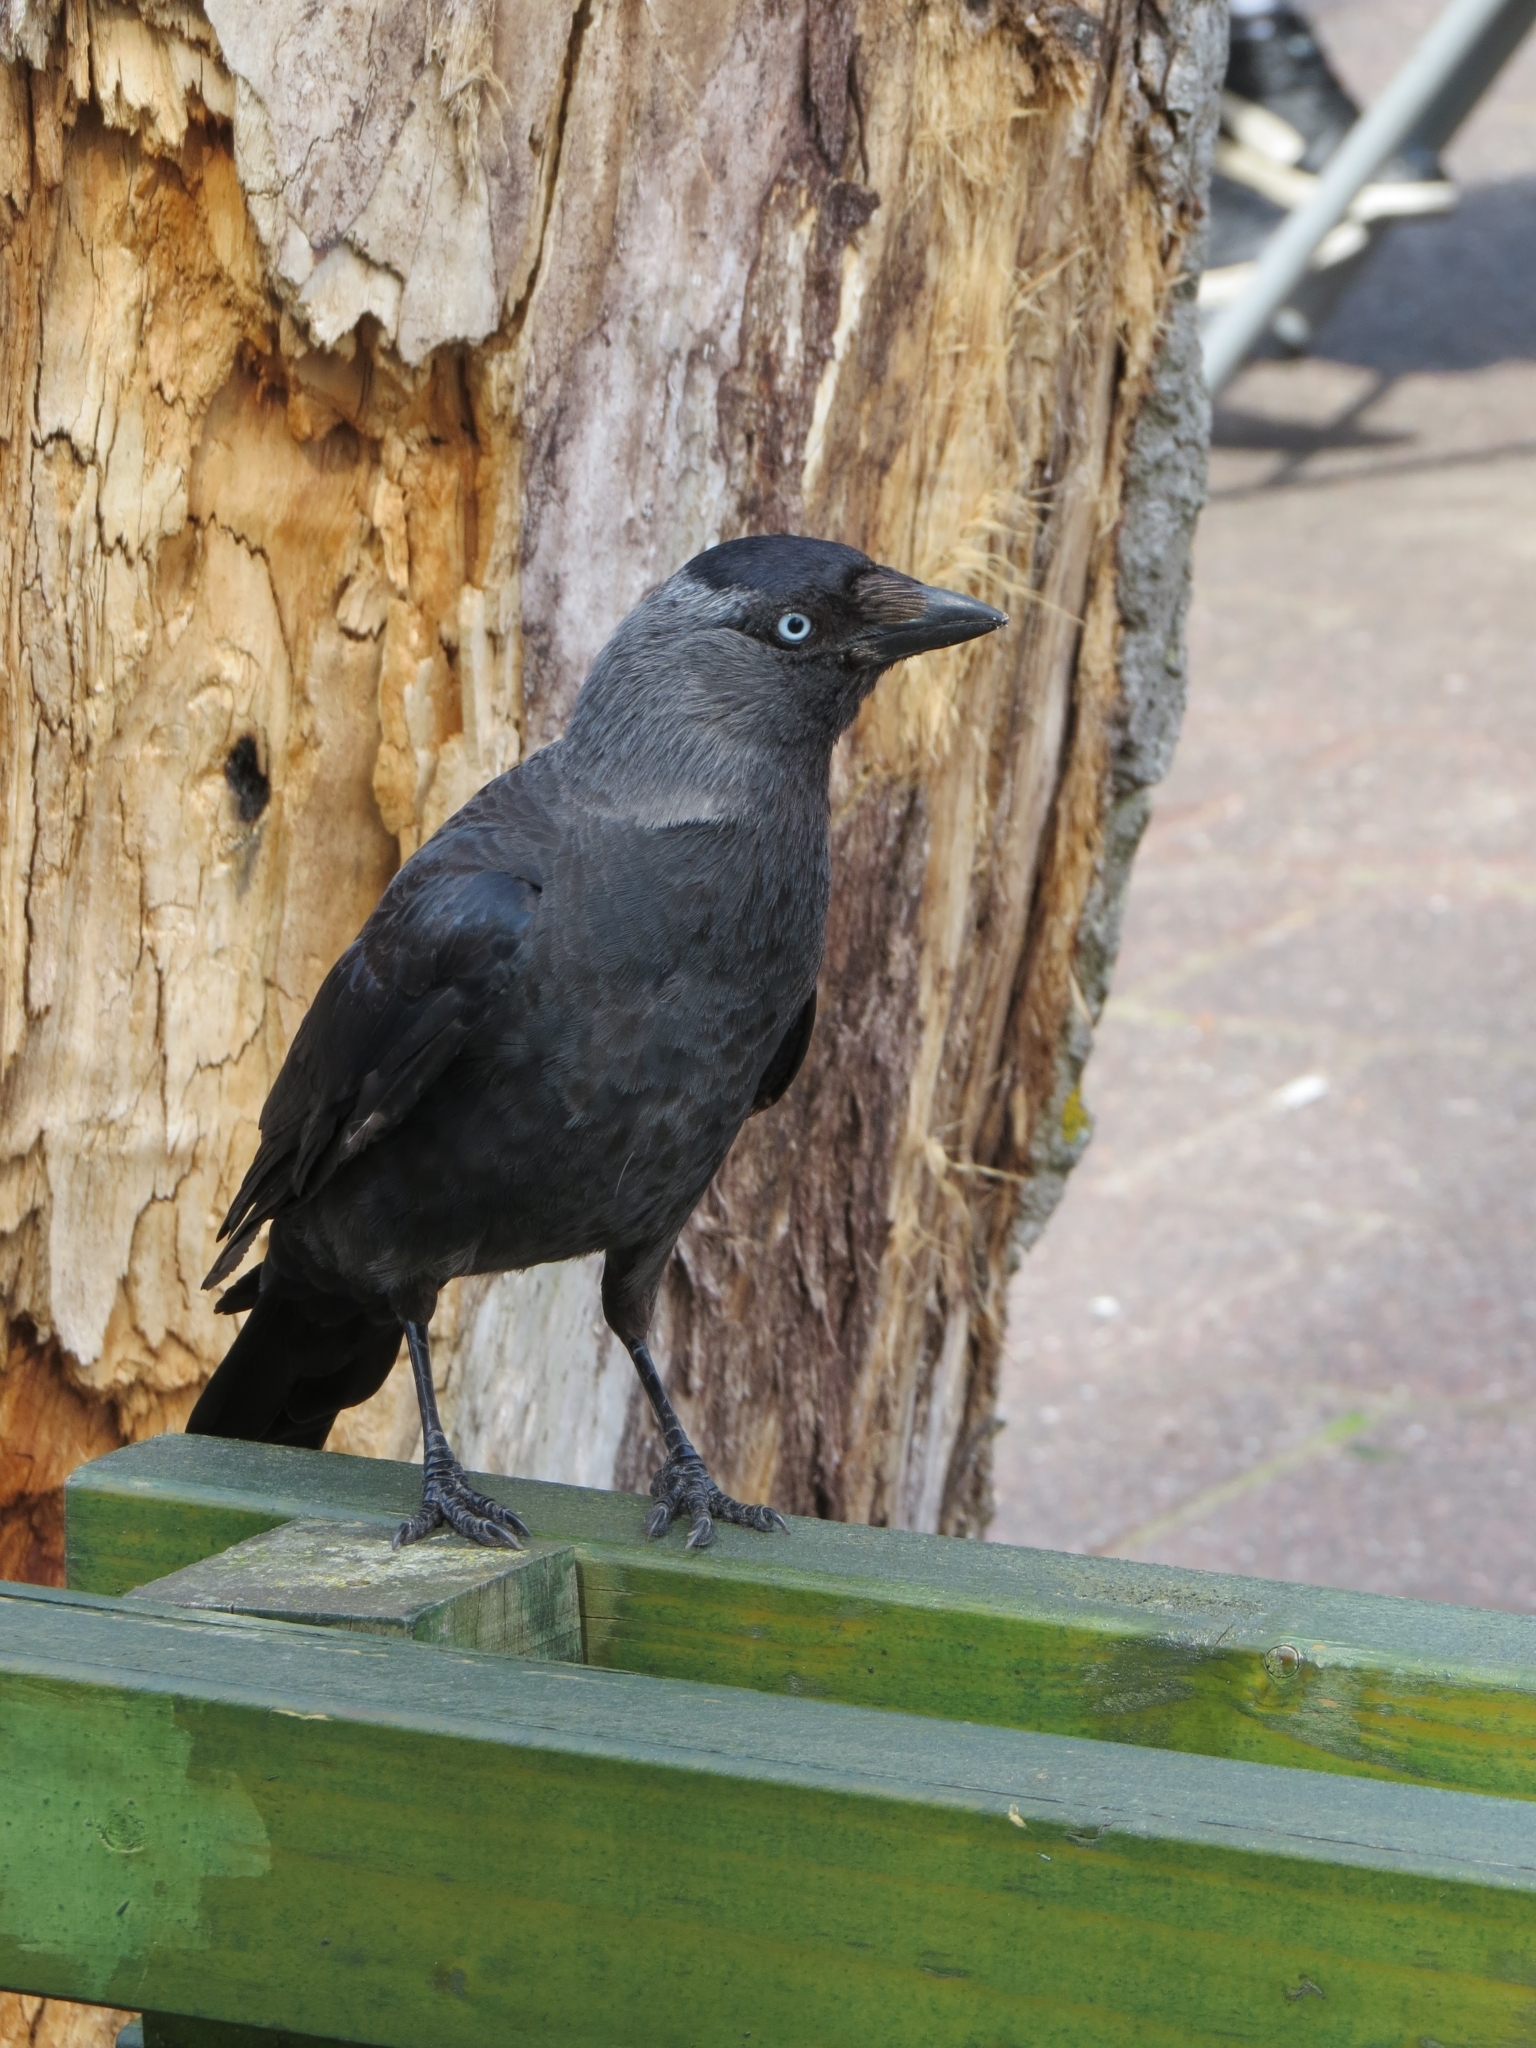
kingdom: Animalia
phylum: Chordata
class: Aves
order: Passeriformes
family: Corvidae
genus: Coloeus
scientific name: Coloeus monedula
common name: Western jackdaw
